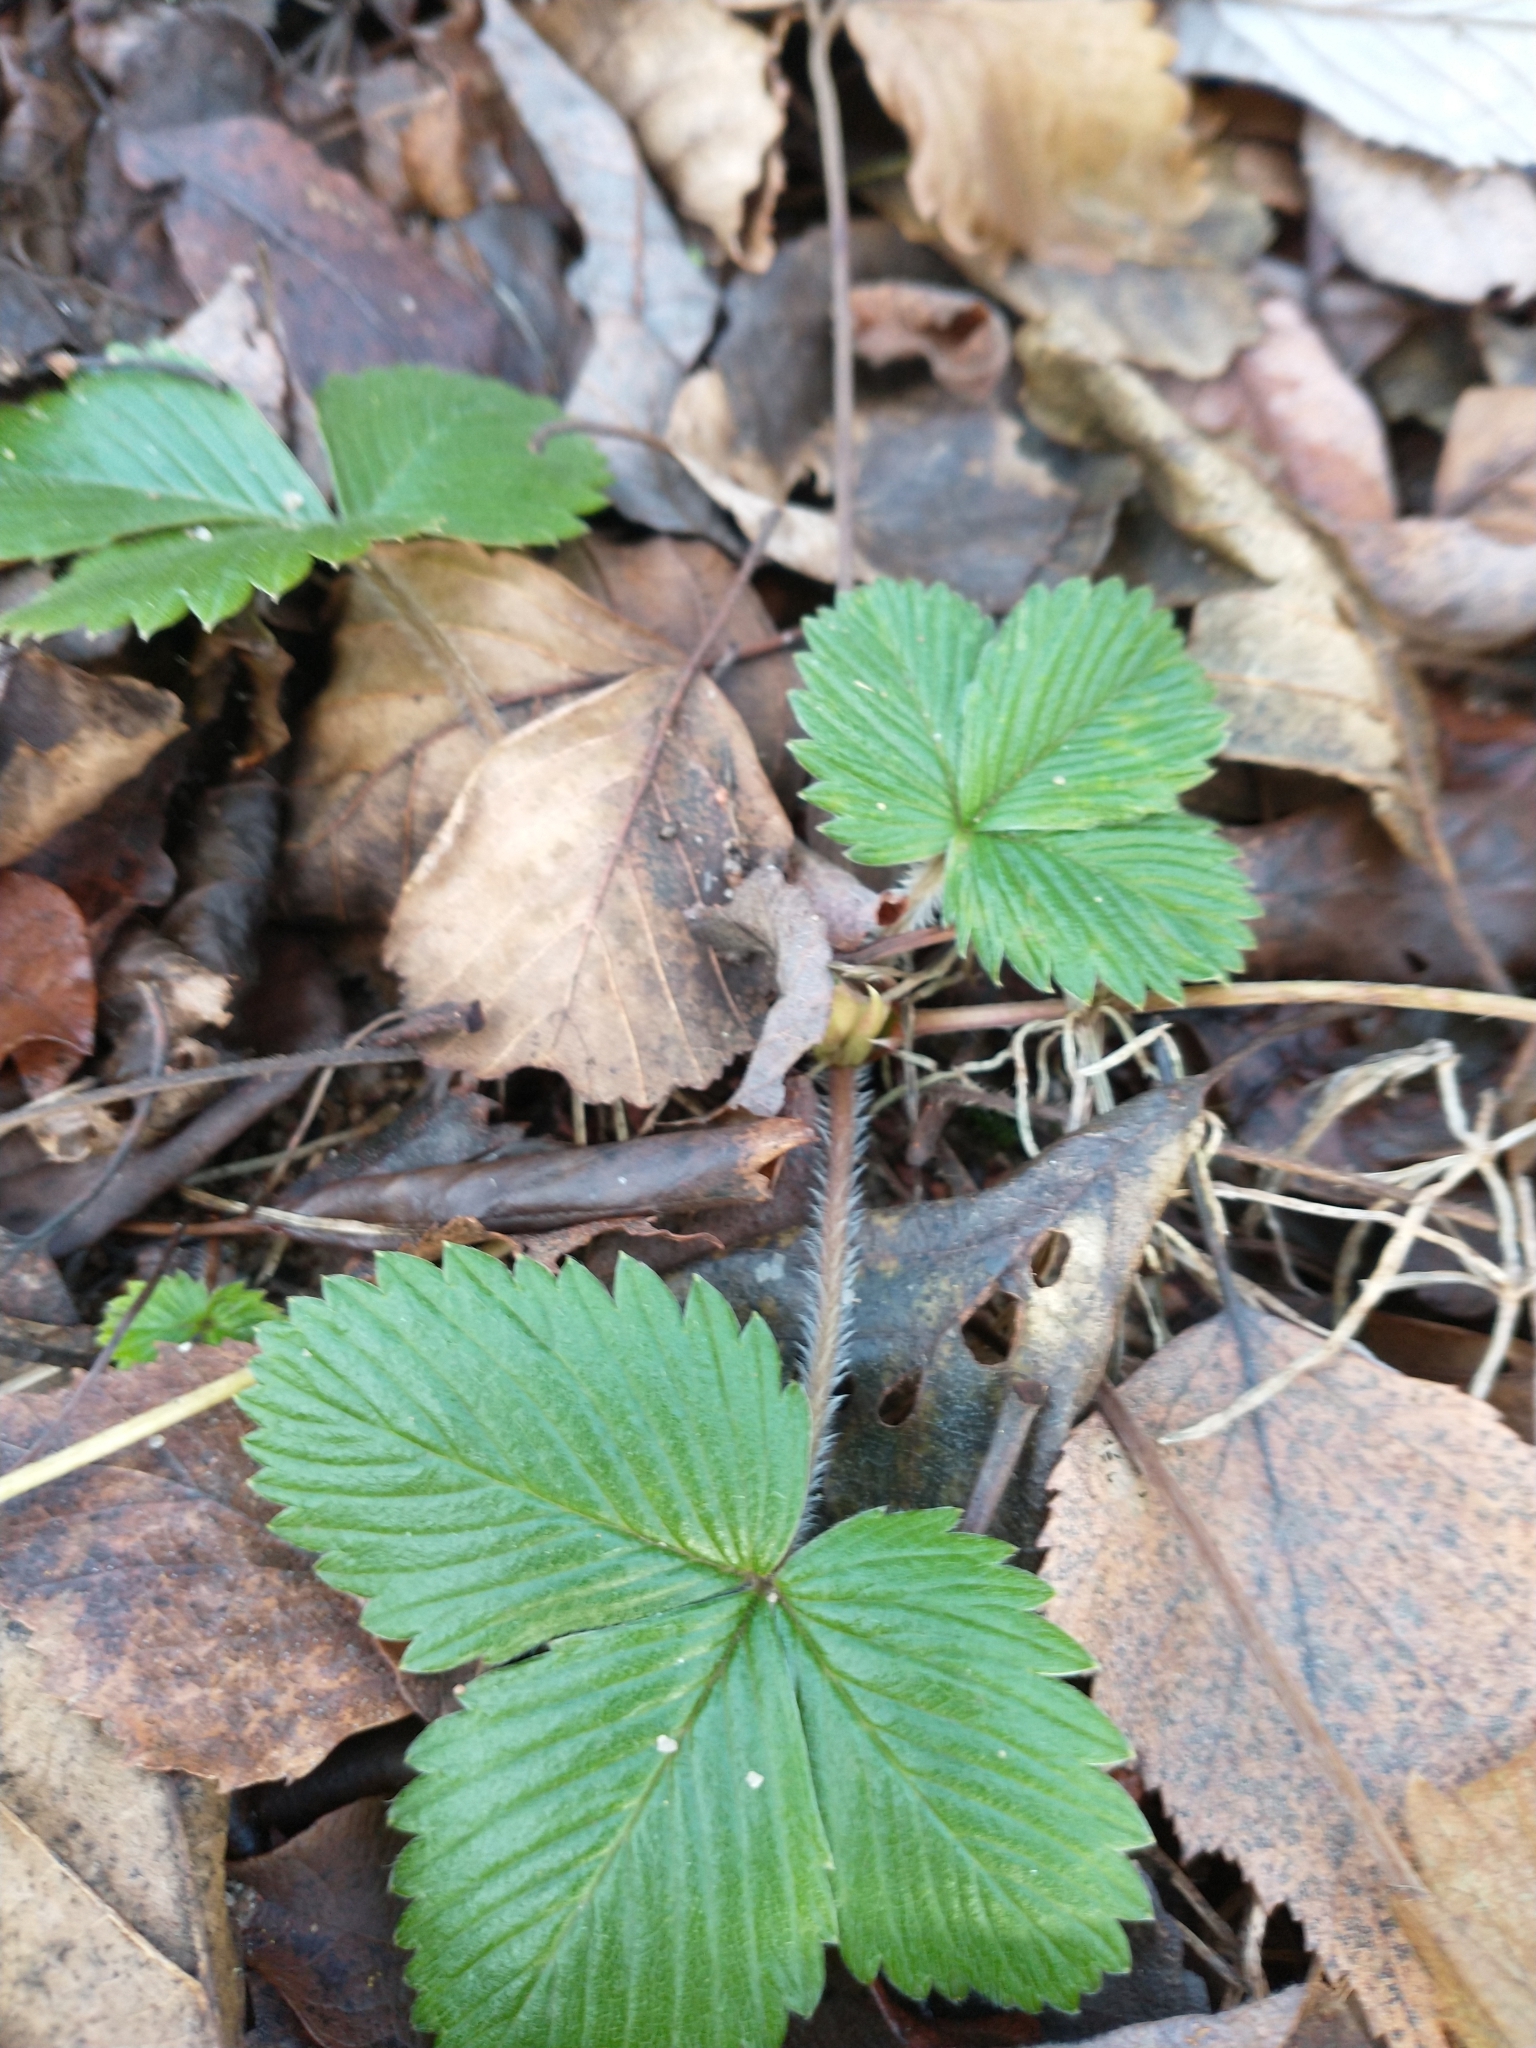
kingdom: Plantae
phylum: Tracheophyta
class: Magnoliopsida
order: Rosales
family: Rosaceae
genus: Fragaria
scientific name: Fragaria vesca
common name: Wild strawberry
